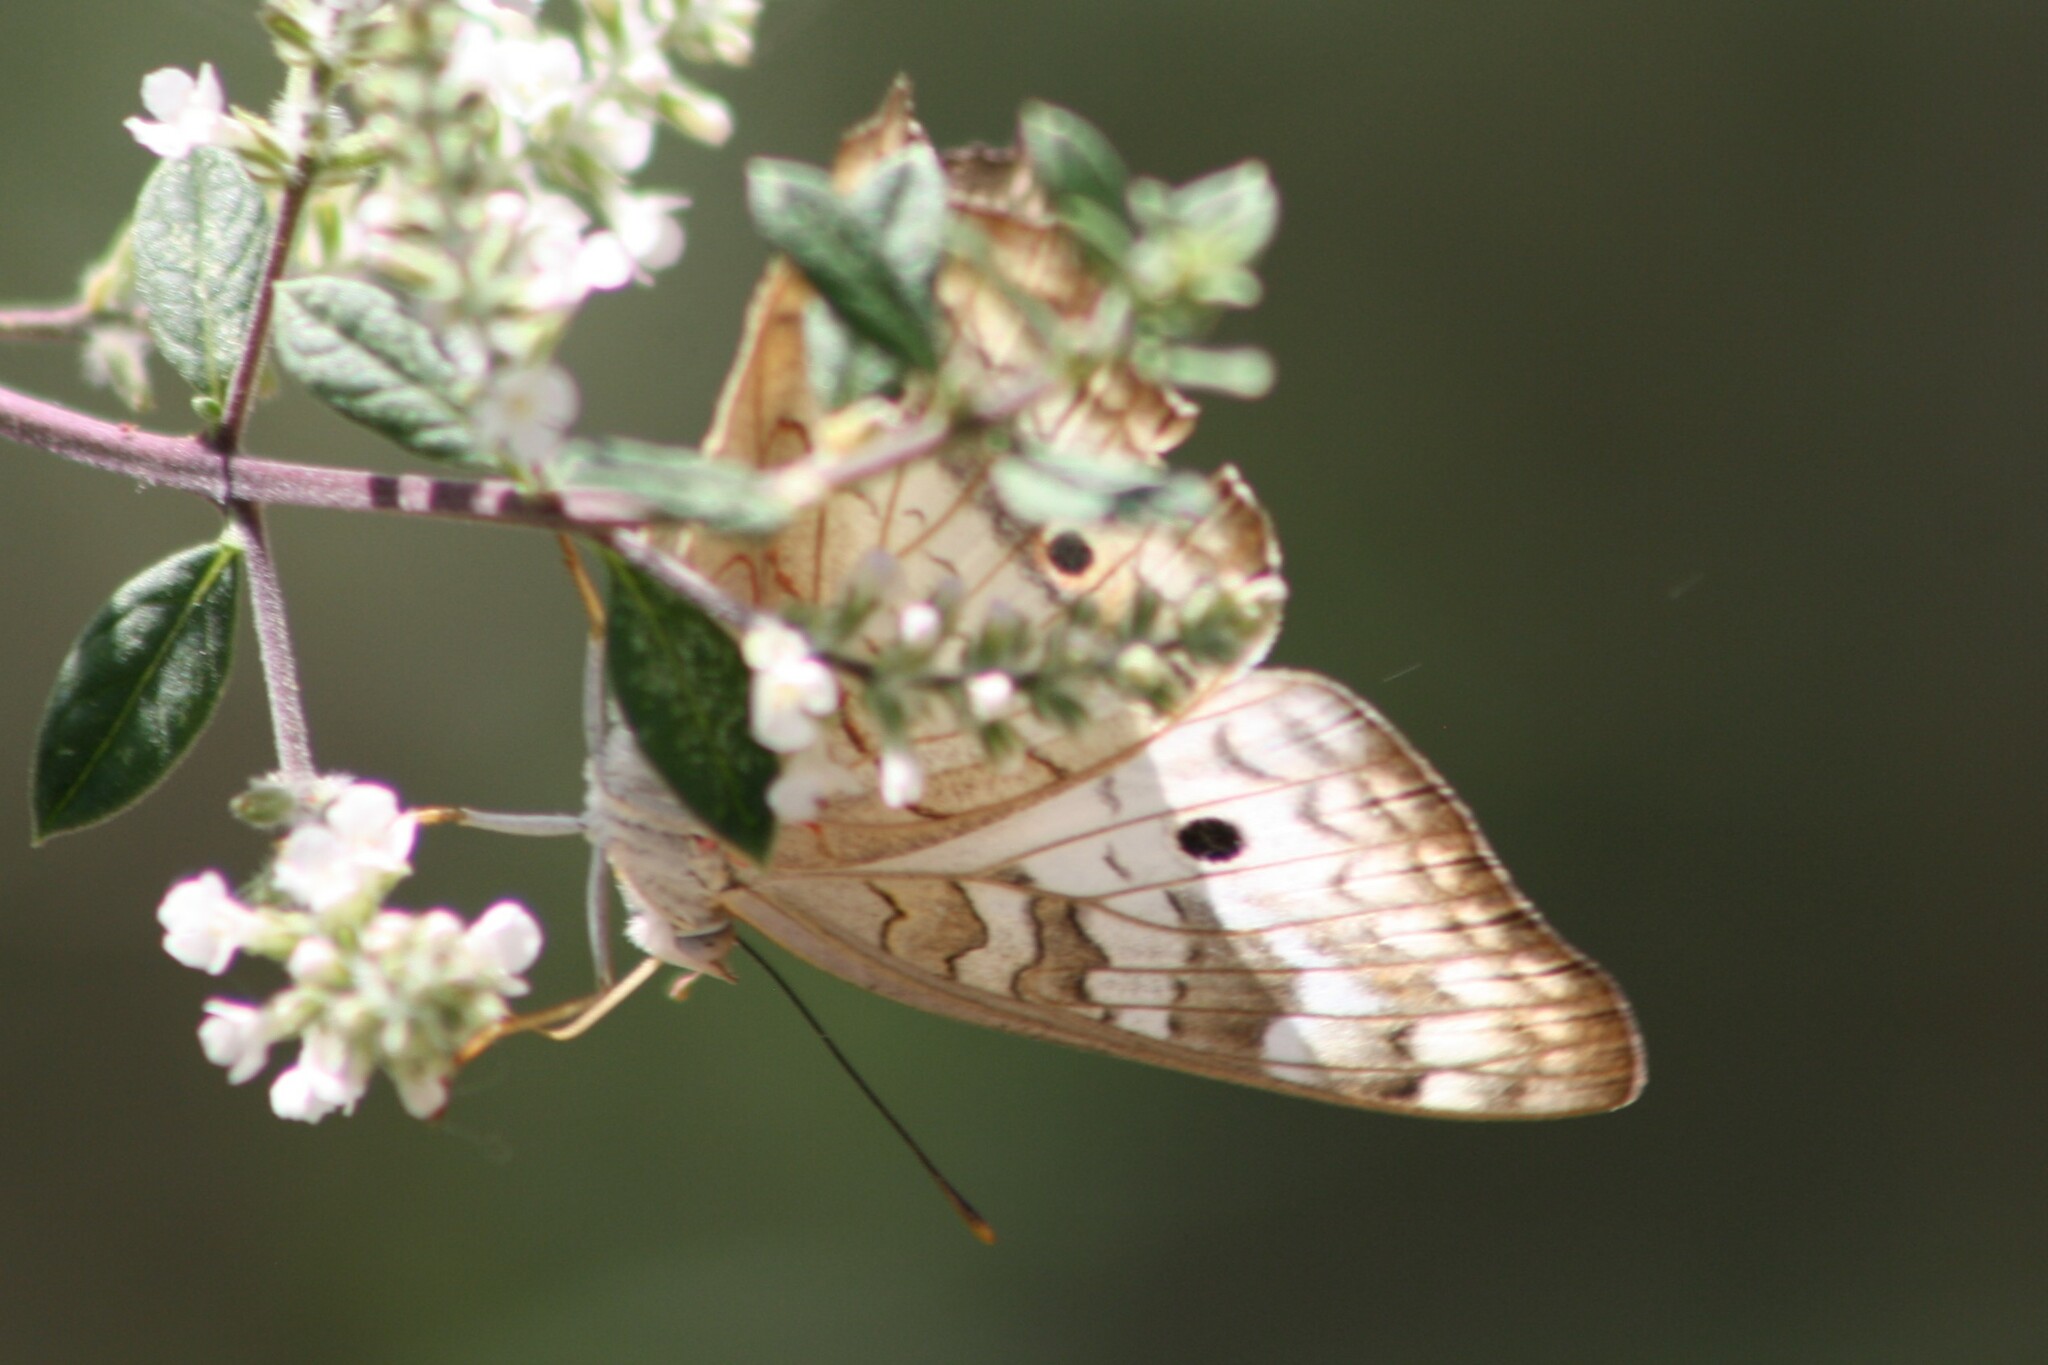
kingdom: Animalia
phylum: Arthropoda
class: Insecta
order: Lepidoptera
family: Nymphalidae
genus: Anartia
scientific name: Anartia jatrophae
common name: White peacock
